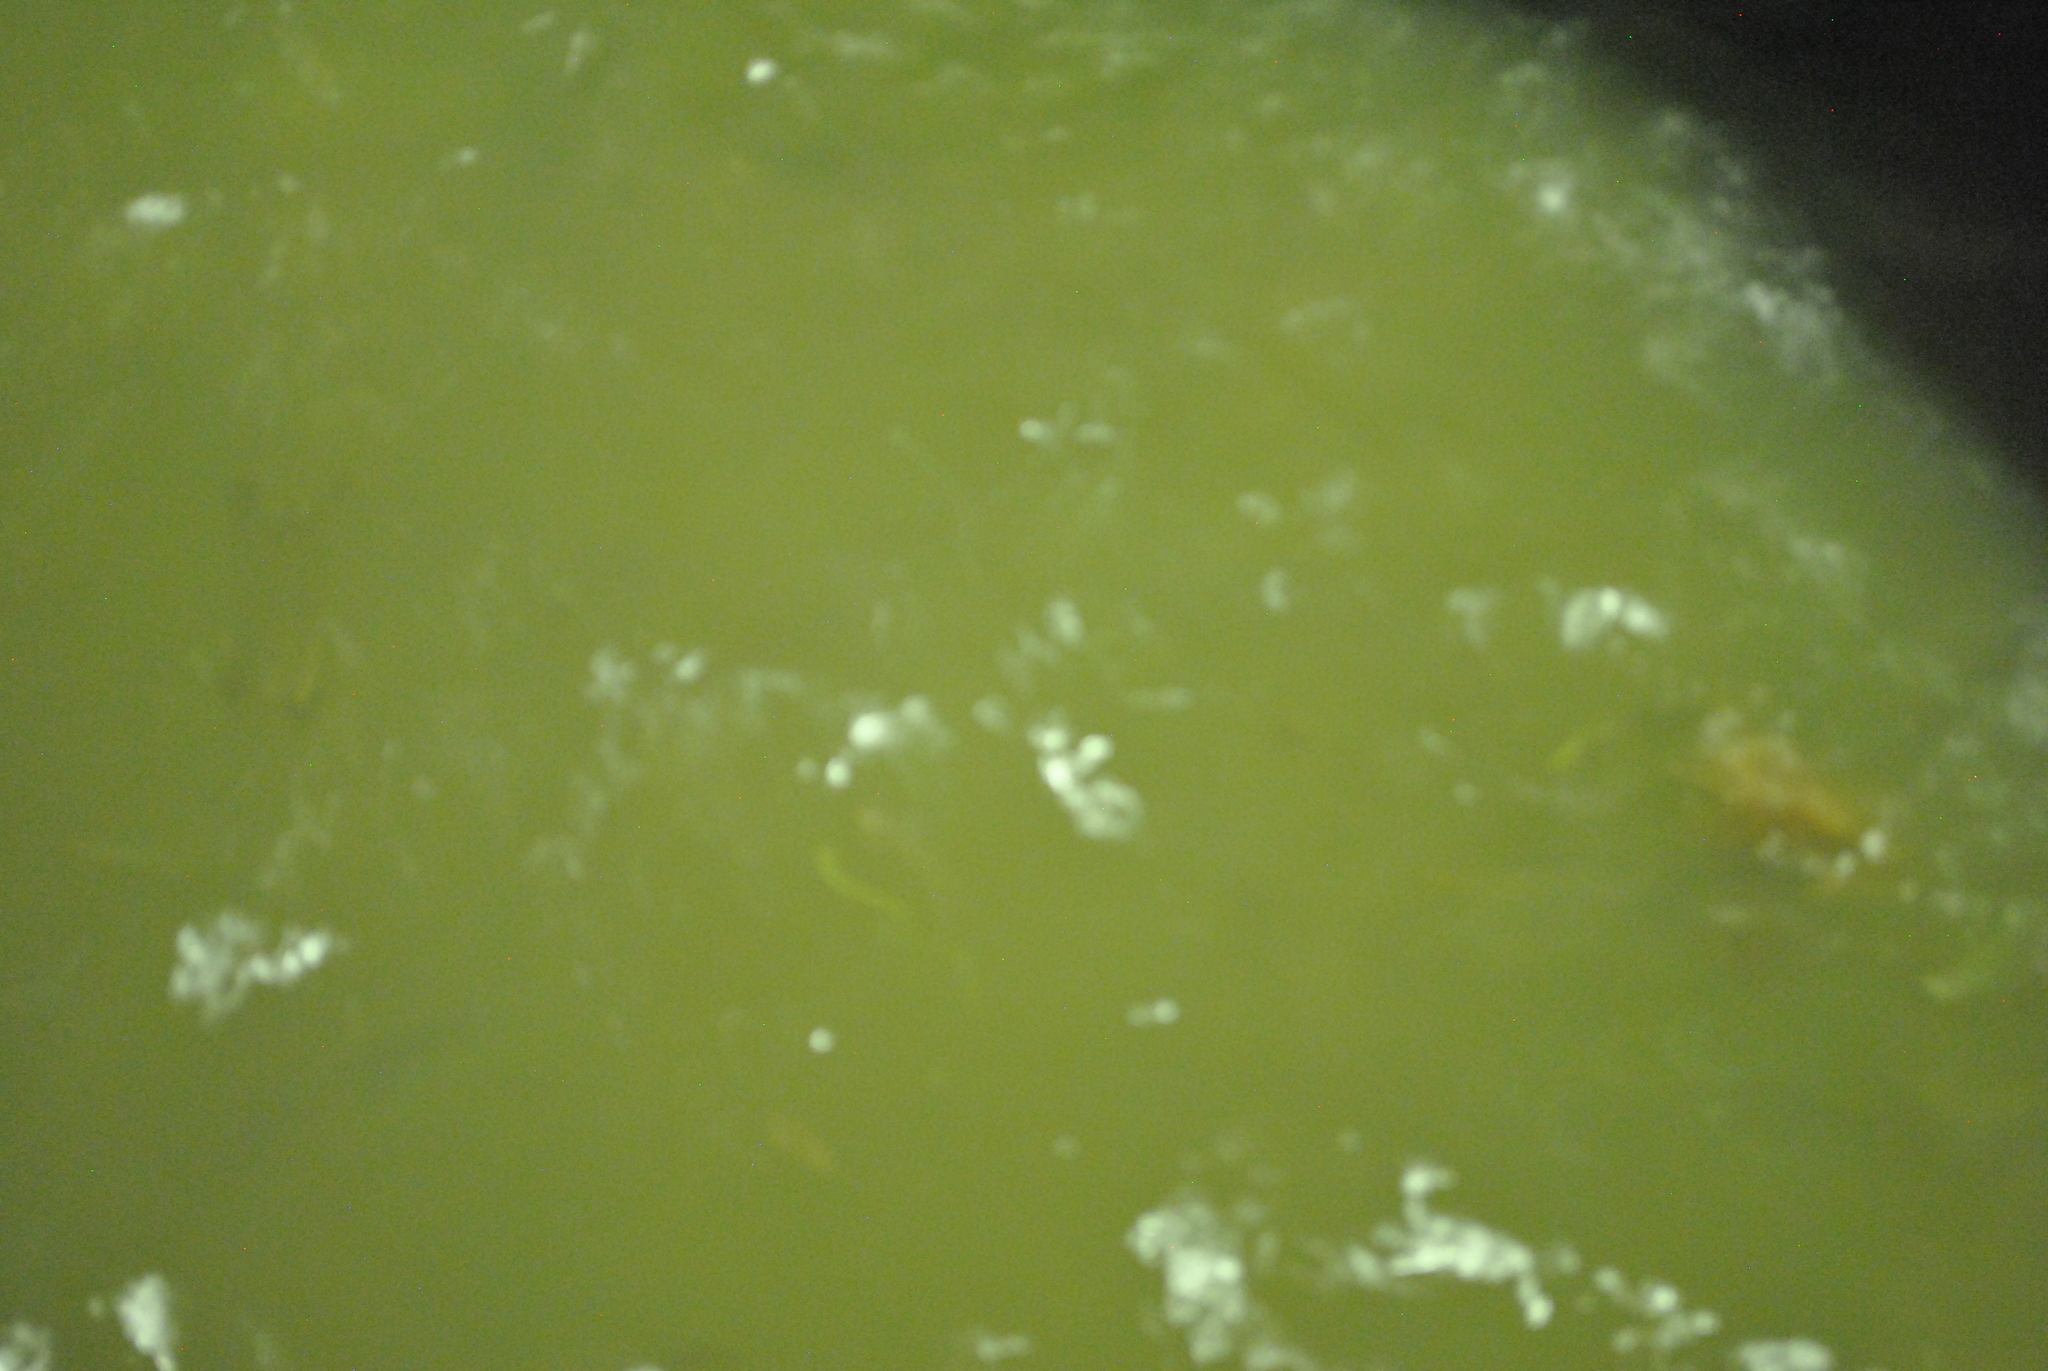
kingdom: Animalia
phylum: Chordata
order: Siluriformes
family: Pangasiidae
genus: Pangasianodon
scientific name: Pangasianodon hypophthalmus
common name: Striped catfish
